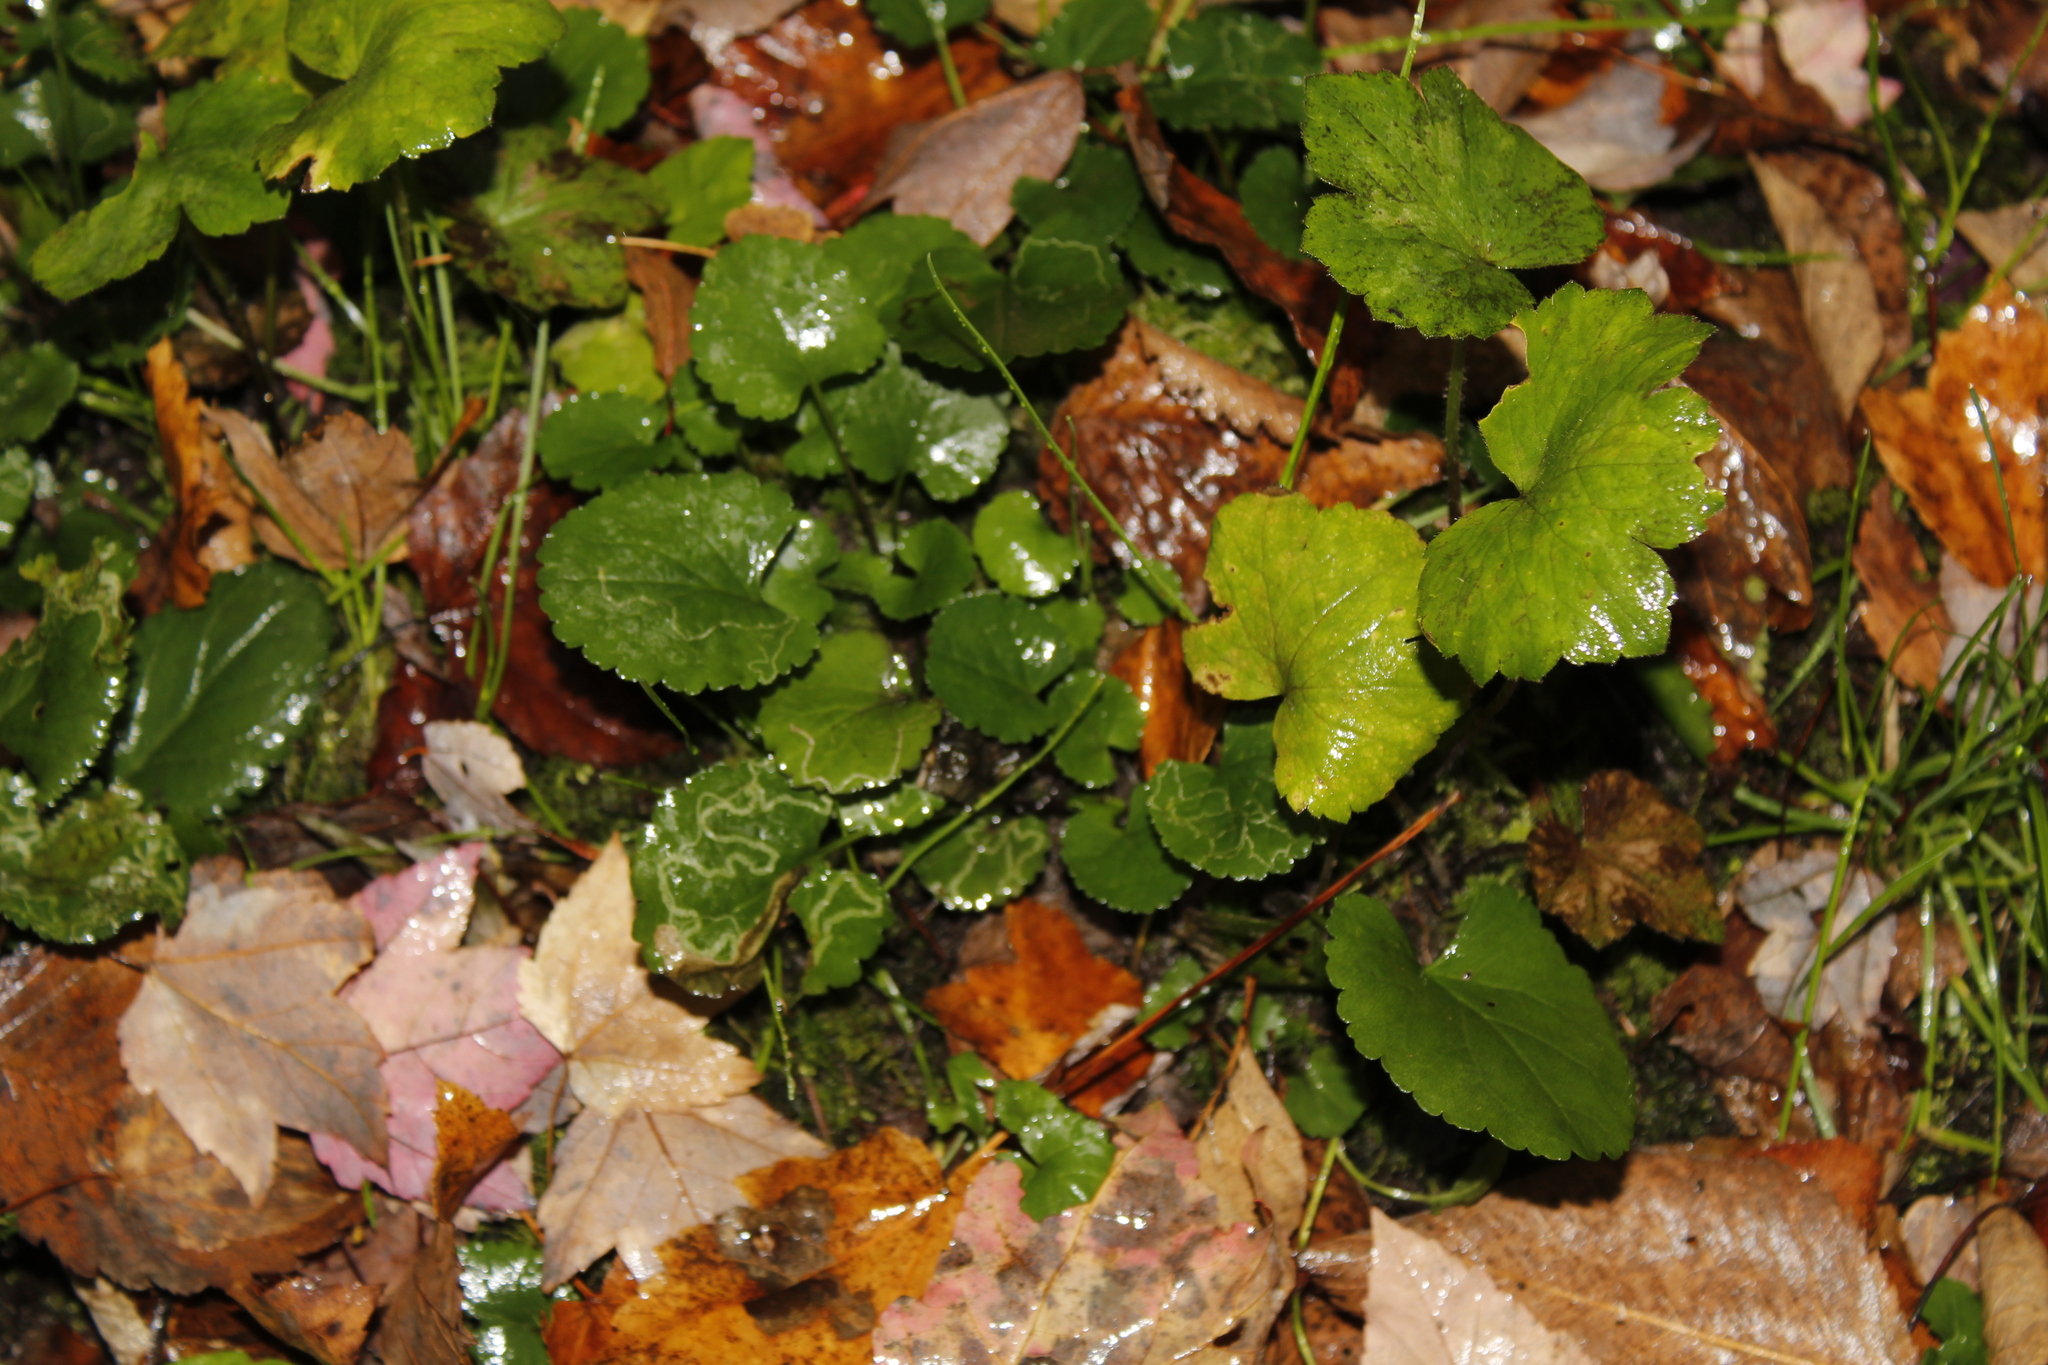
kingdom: Animalia
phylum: Arthropoda
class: Insecta
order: Lepidoptera
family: Gracillariidae
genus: Phyllocnistis
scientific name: Phyllocnistis insignis
